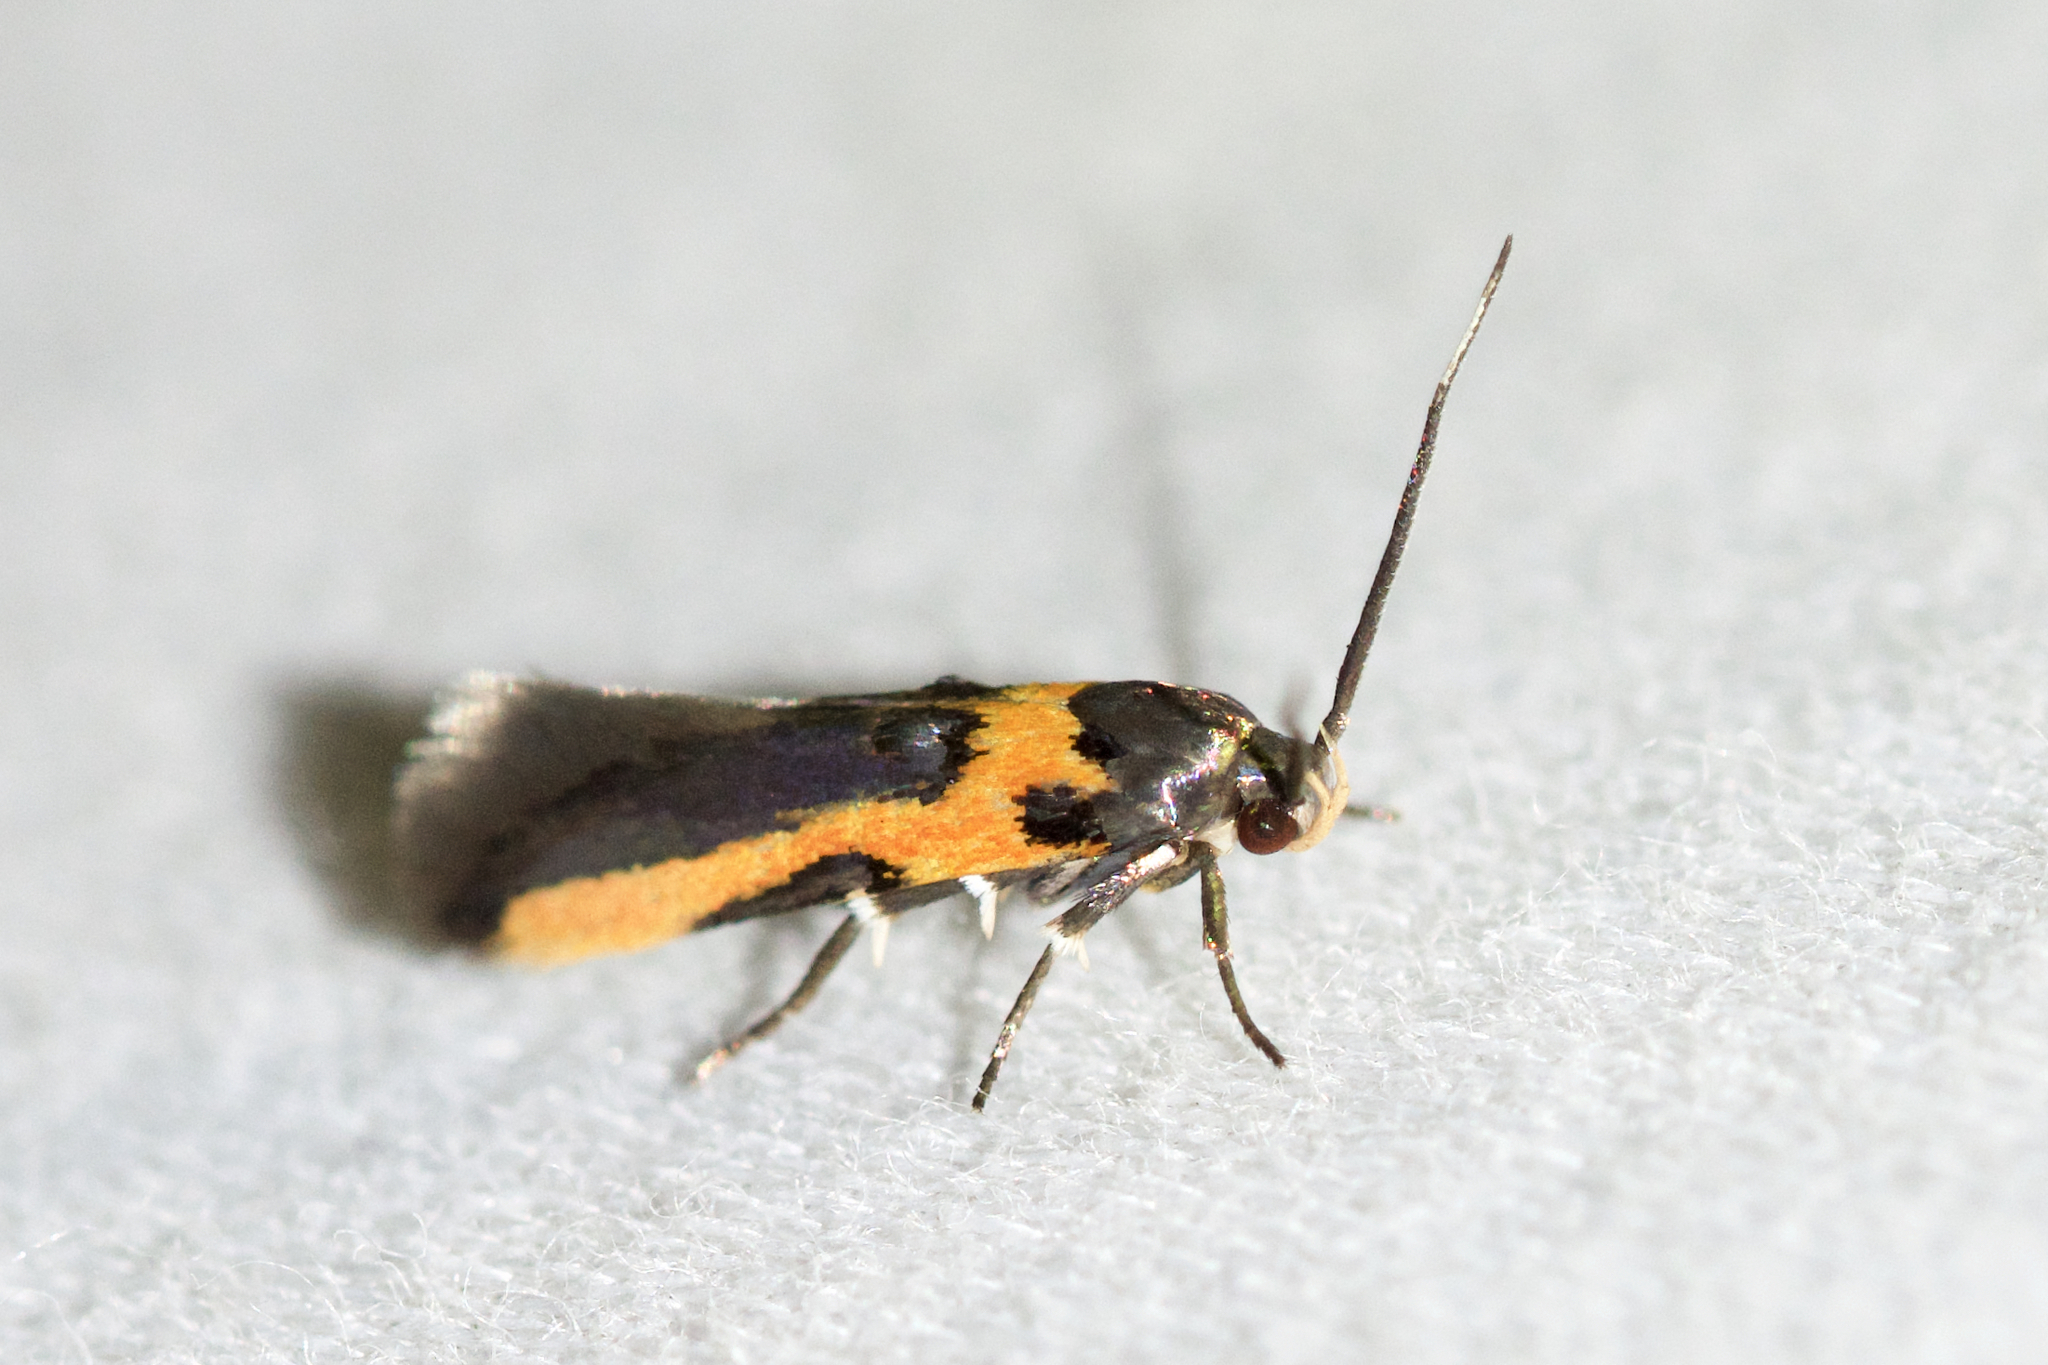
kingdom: Animalia
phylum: Arthropoda
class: Insecta
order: Lepidoptera
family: Cosmopterigidae
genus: Euclemensia
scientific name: Euclemensia bassettella
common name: Kermes scale moth
